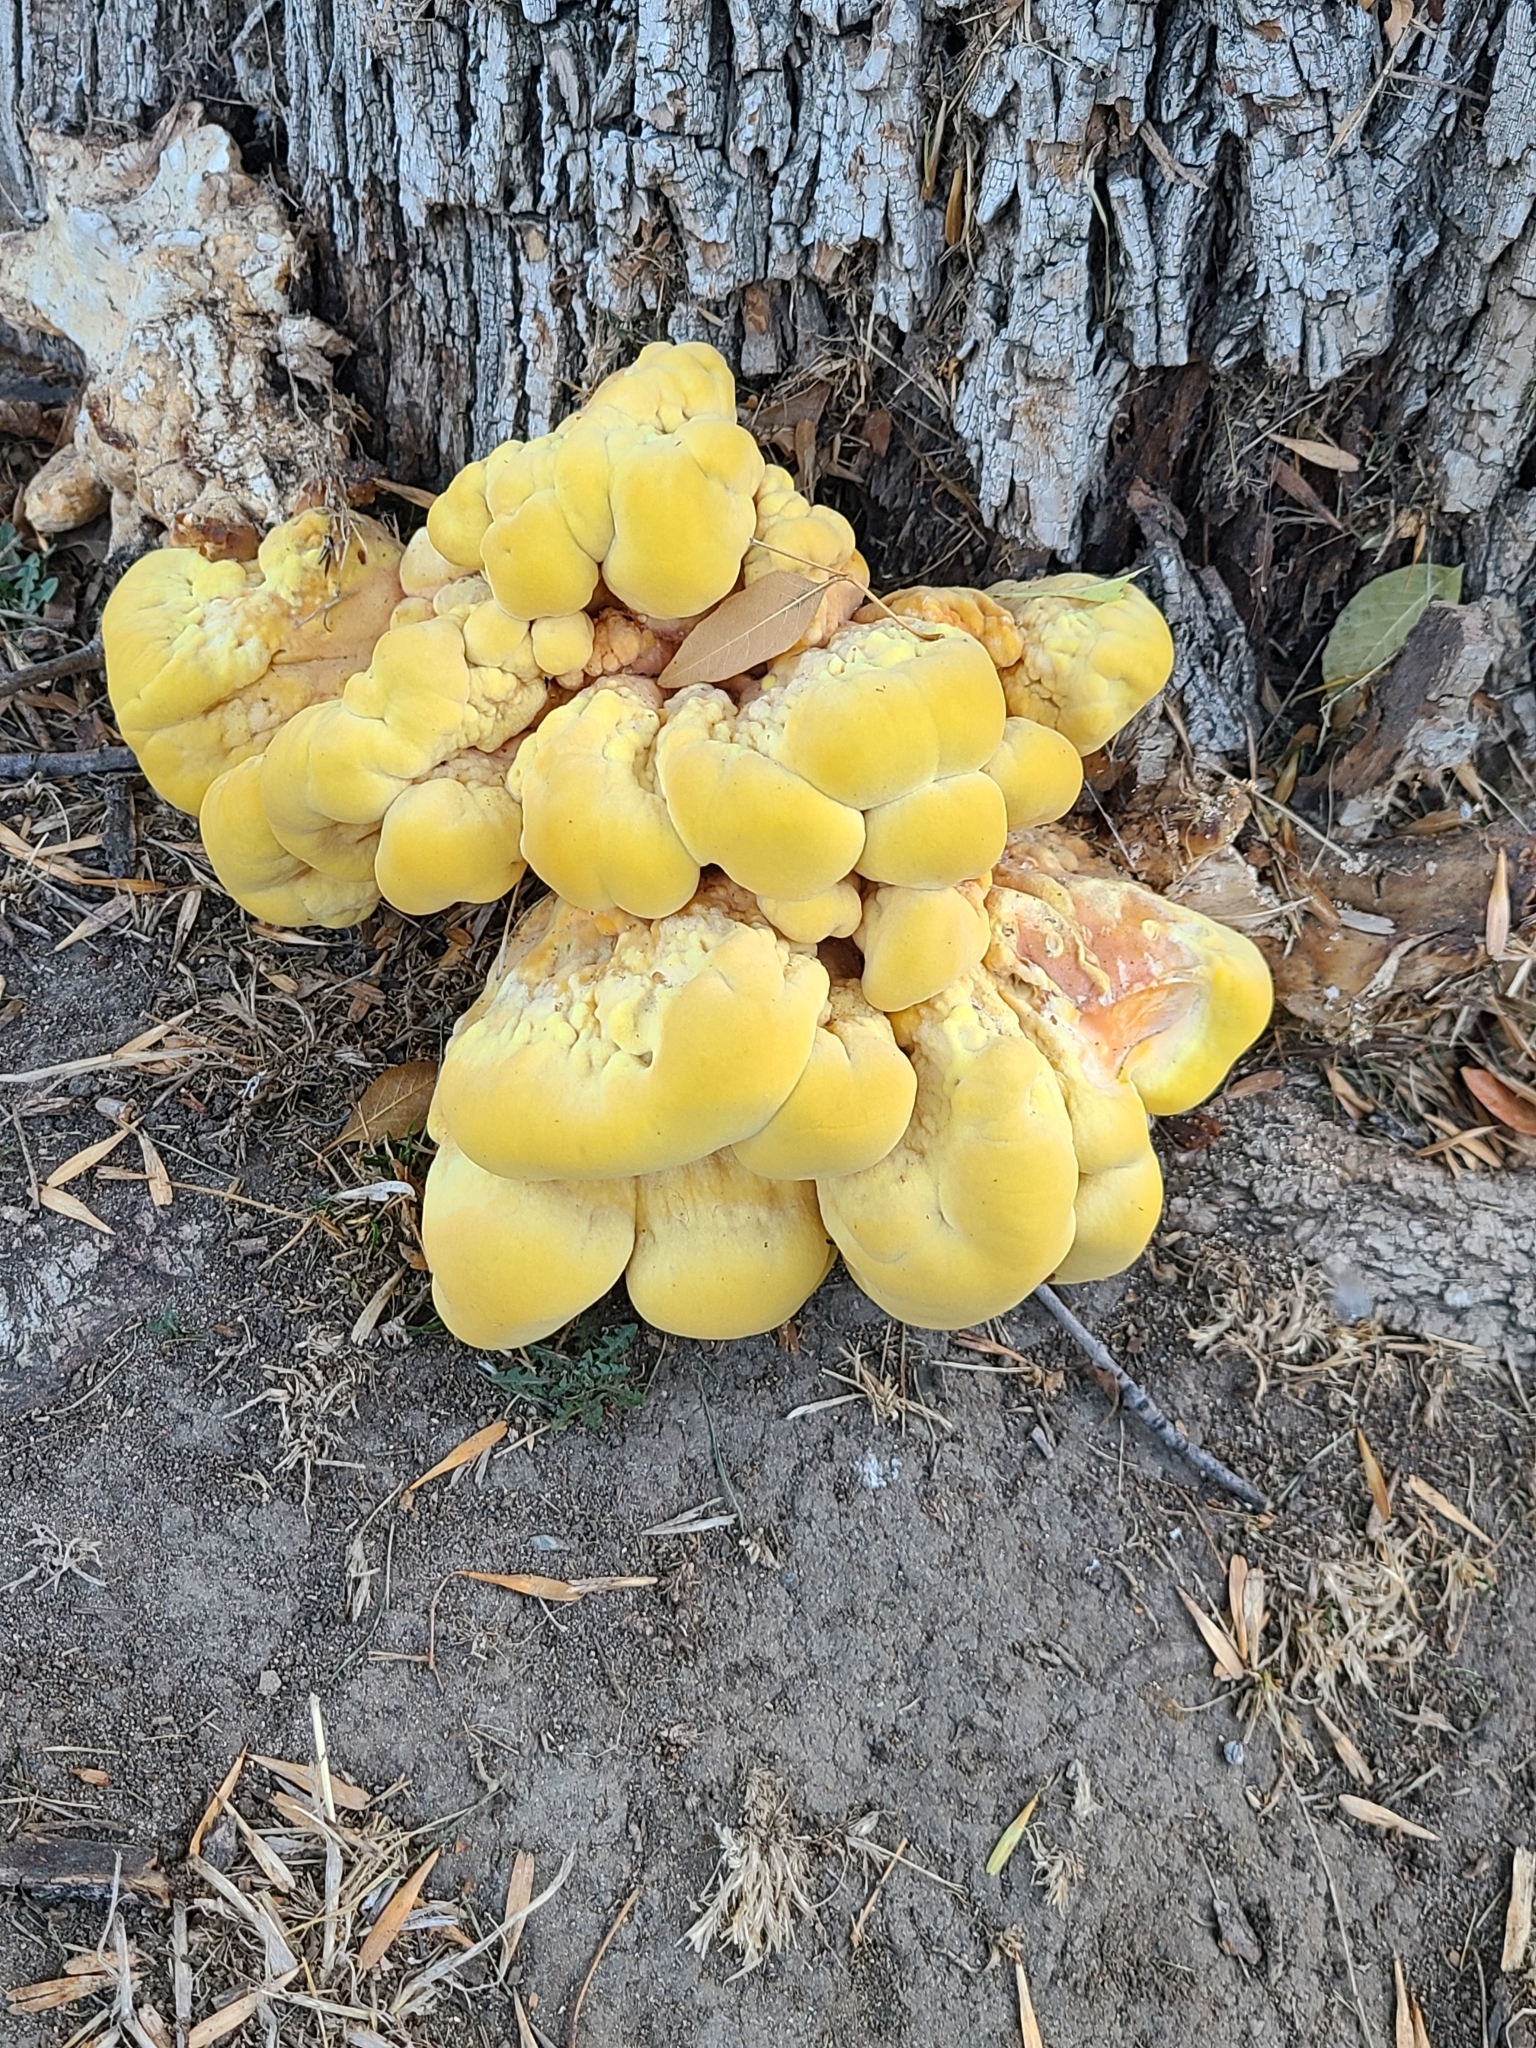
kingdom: Fungi
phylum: Basidiomycota
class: Agaricomycetes
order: Polyporales
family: Laetiporaceae
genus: Laetiporus
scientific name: Laetiporus gilbertsonii
